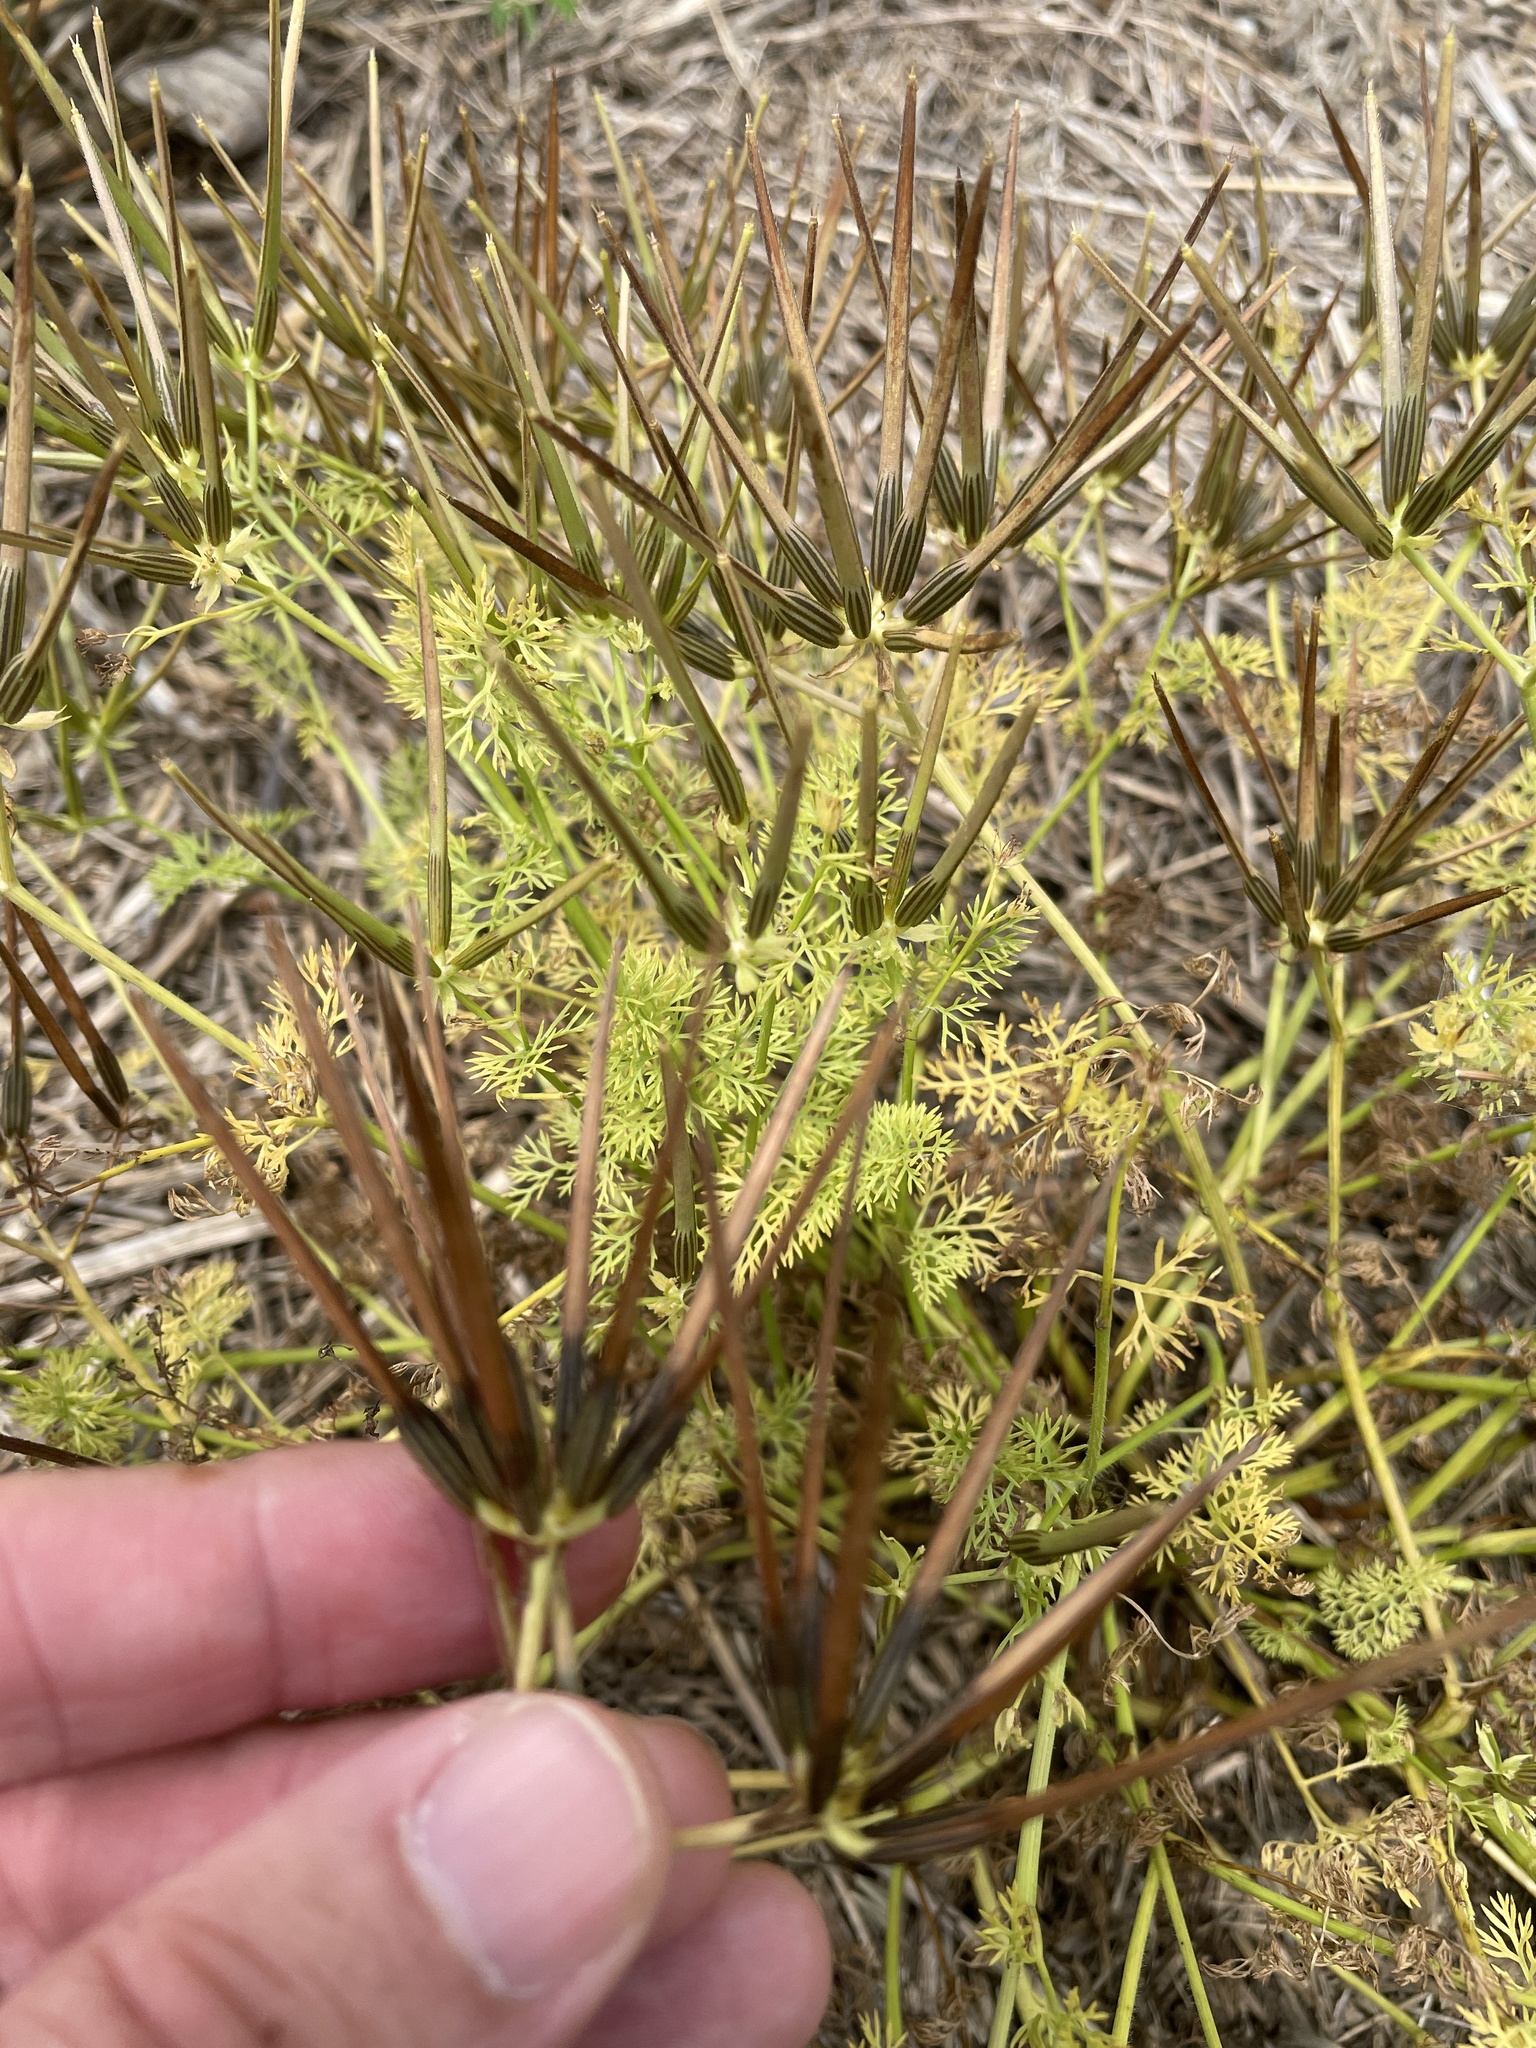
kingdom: Plantae
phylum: Tracheophyta
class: Magnoliopsida
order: Apiales
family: Apiaceae
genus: Scandix
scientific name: Scandix pecten-veneris
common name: Shepherd's-needle
